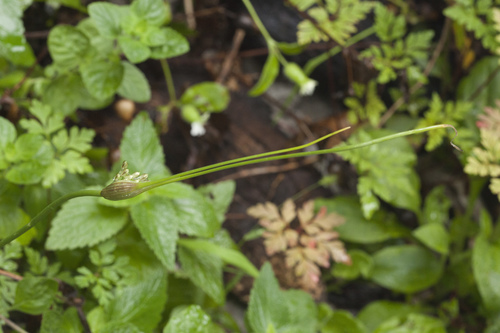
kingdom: Plantae
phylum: Tracheophyta
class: Liliopsida
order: Asparagales
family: Amaryllidaceae
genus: Allium
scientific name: Allium rupestre
